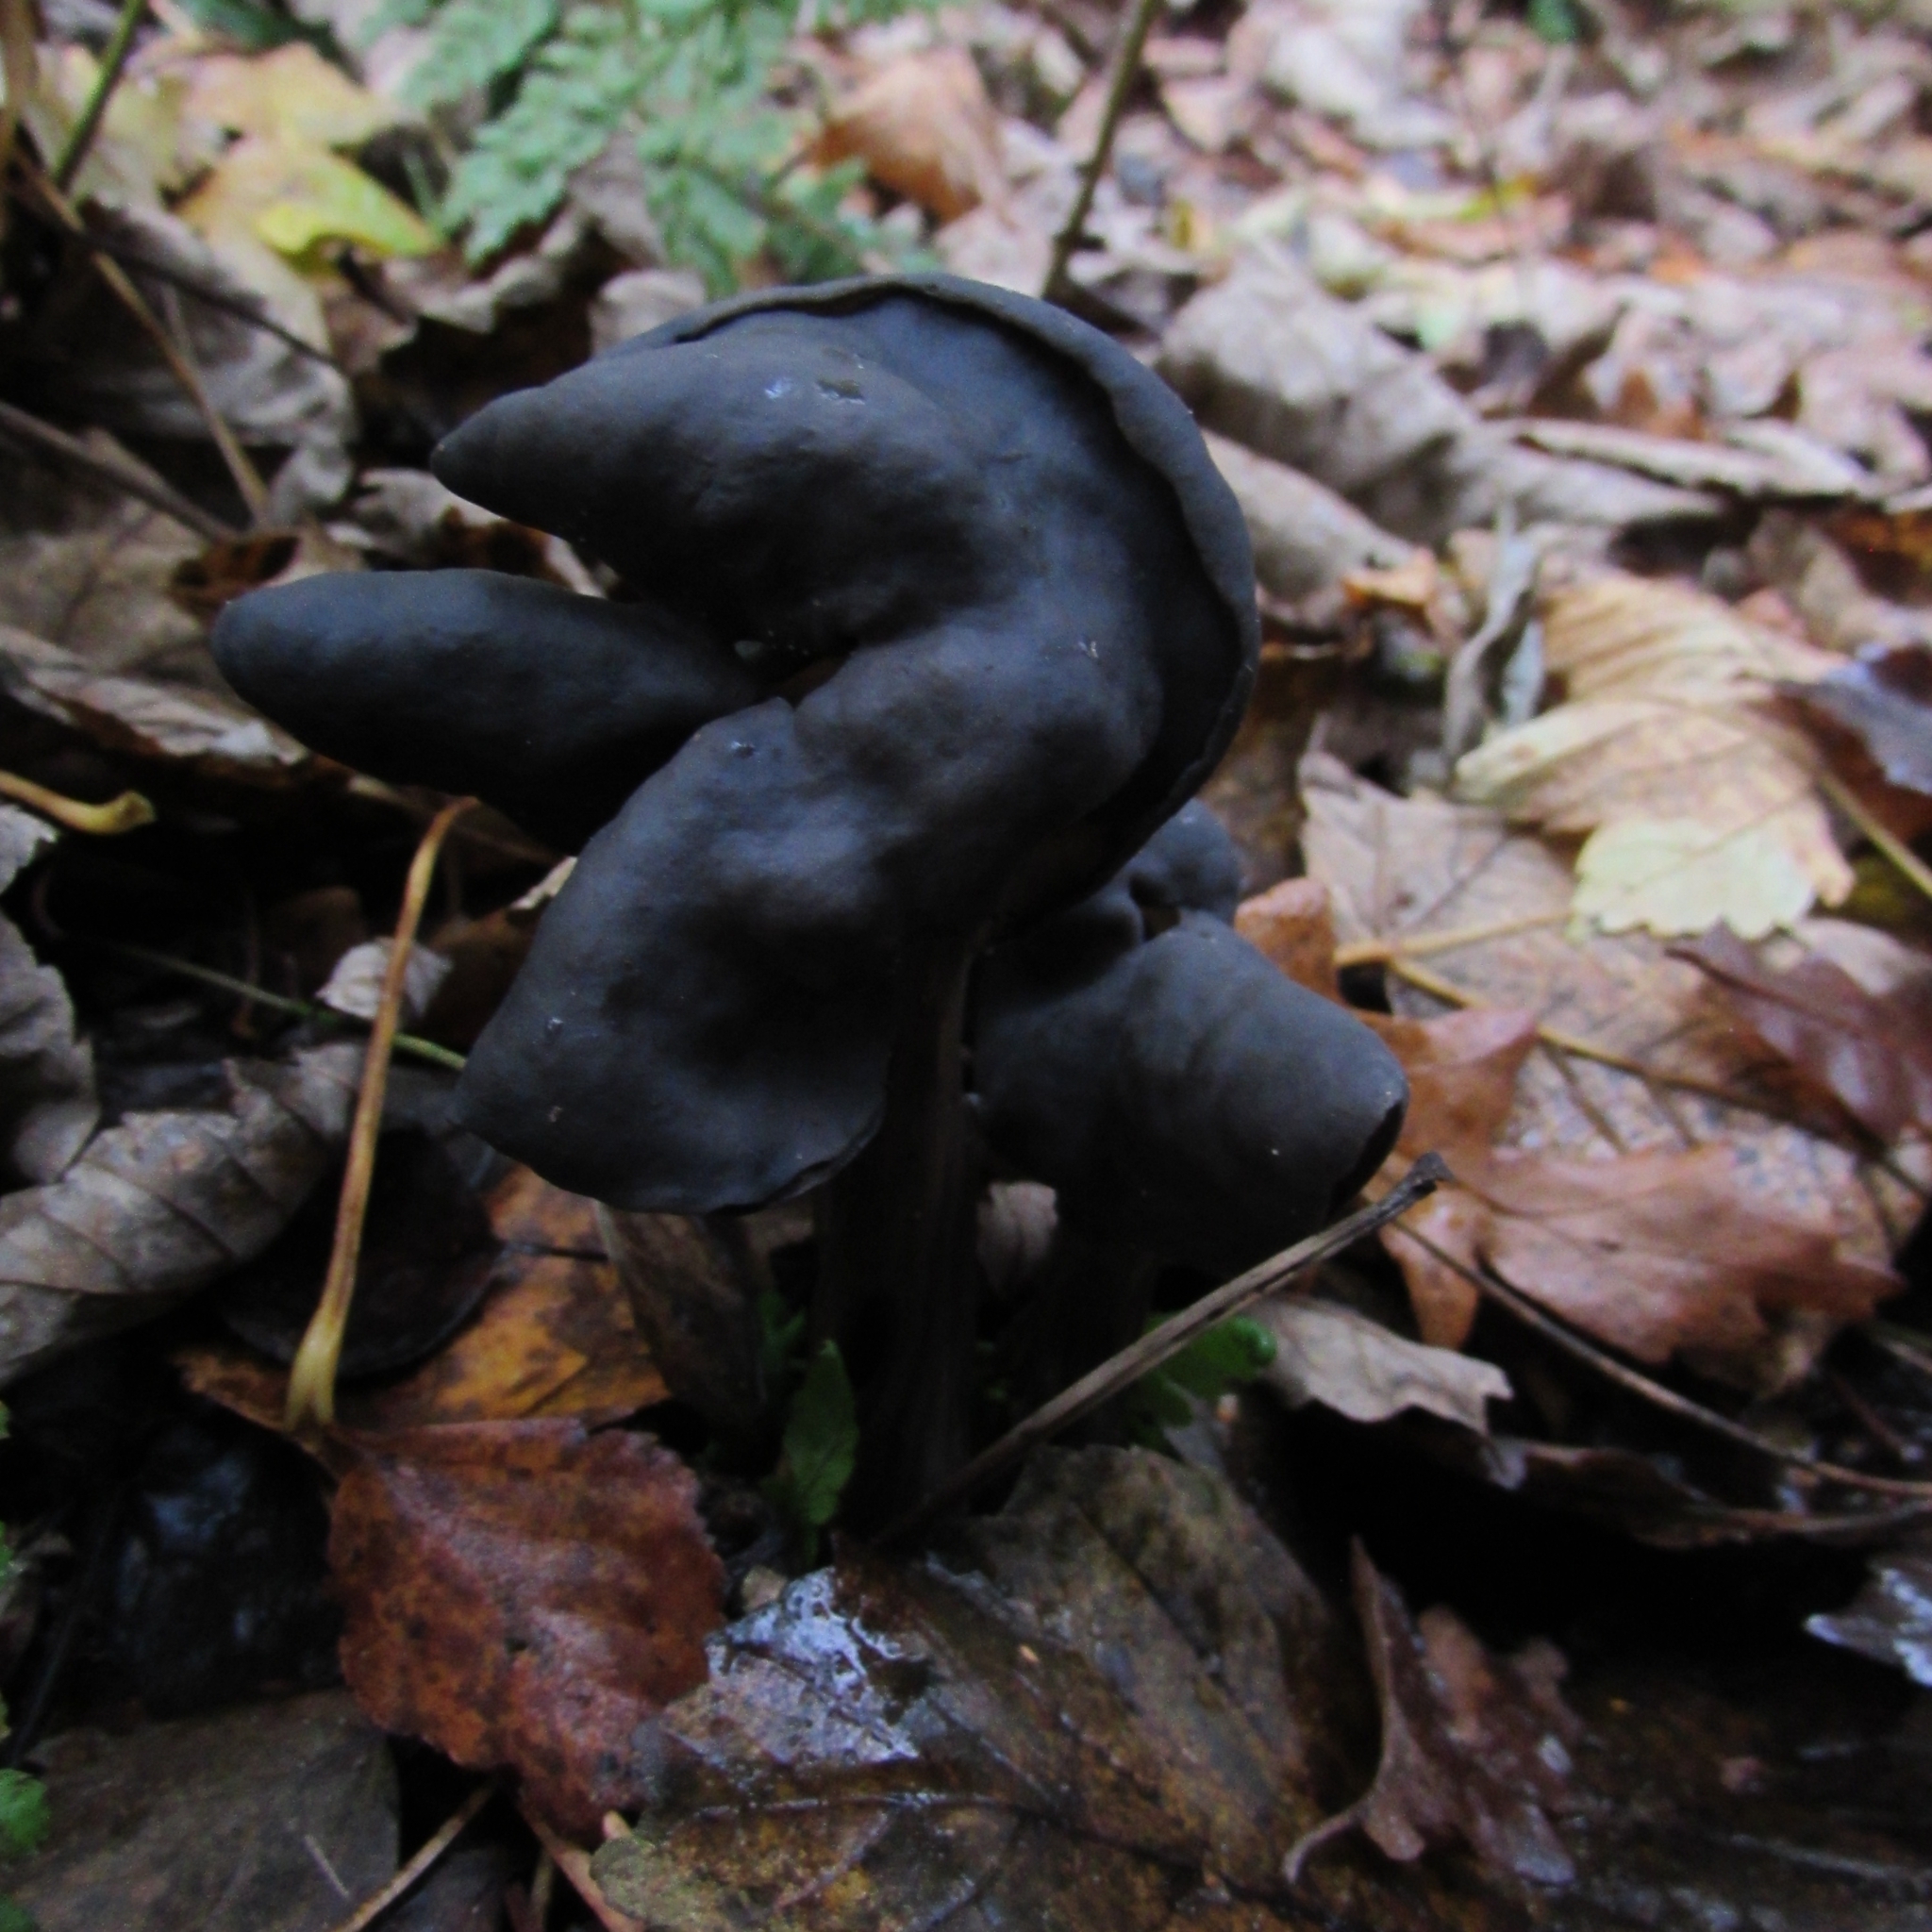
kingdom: Fungi
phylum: Ascomycota
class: Pezizomycetes
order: Pezizales
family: Helvellaceae
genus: Helvella
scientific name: Helvella lacunosa
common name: Elfin saddle
